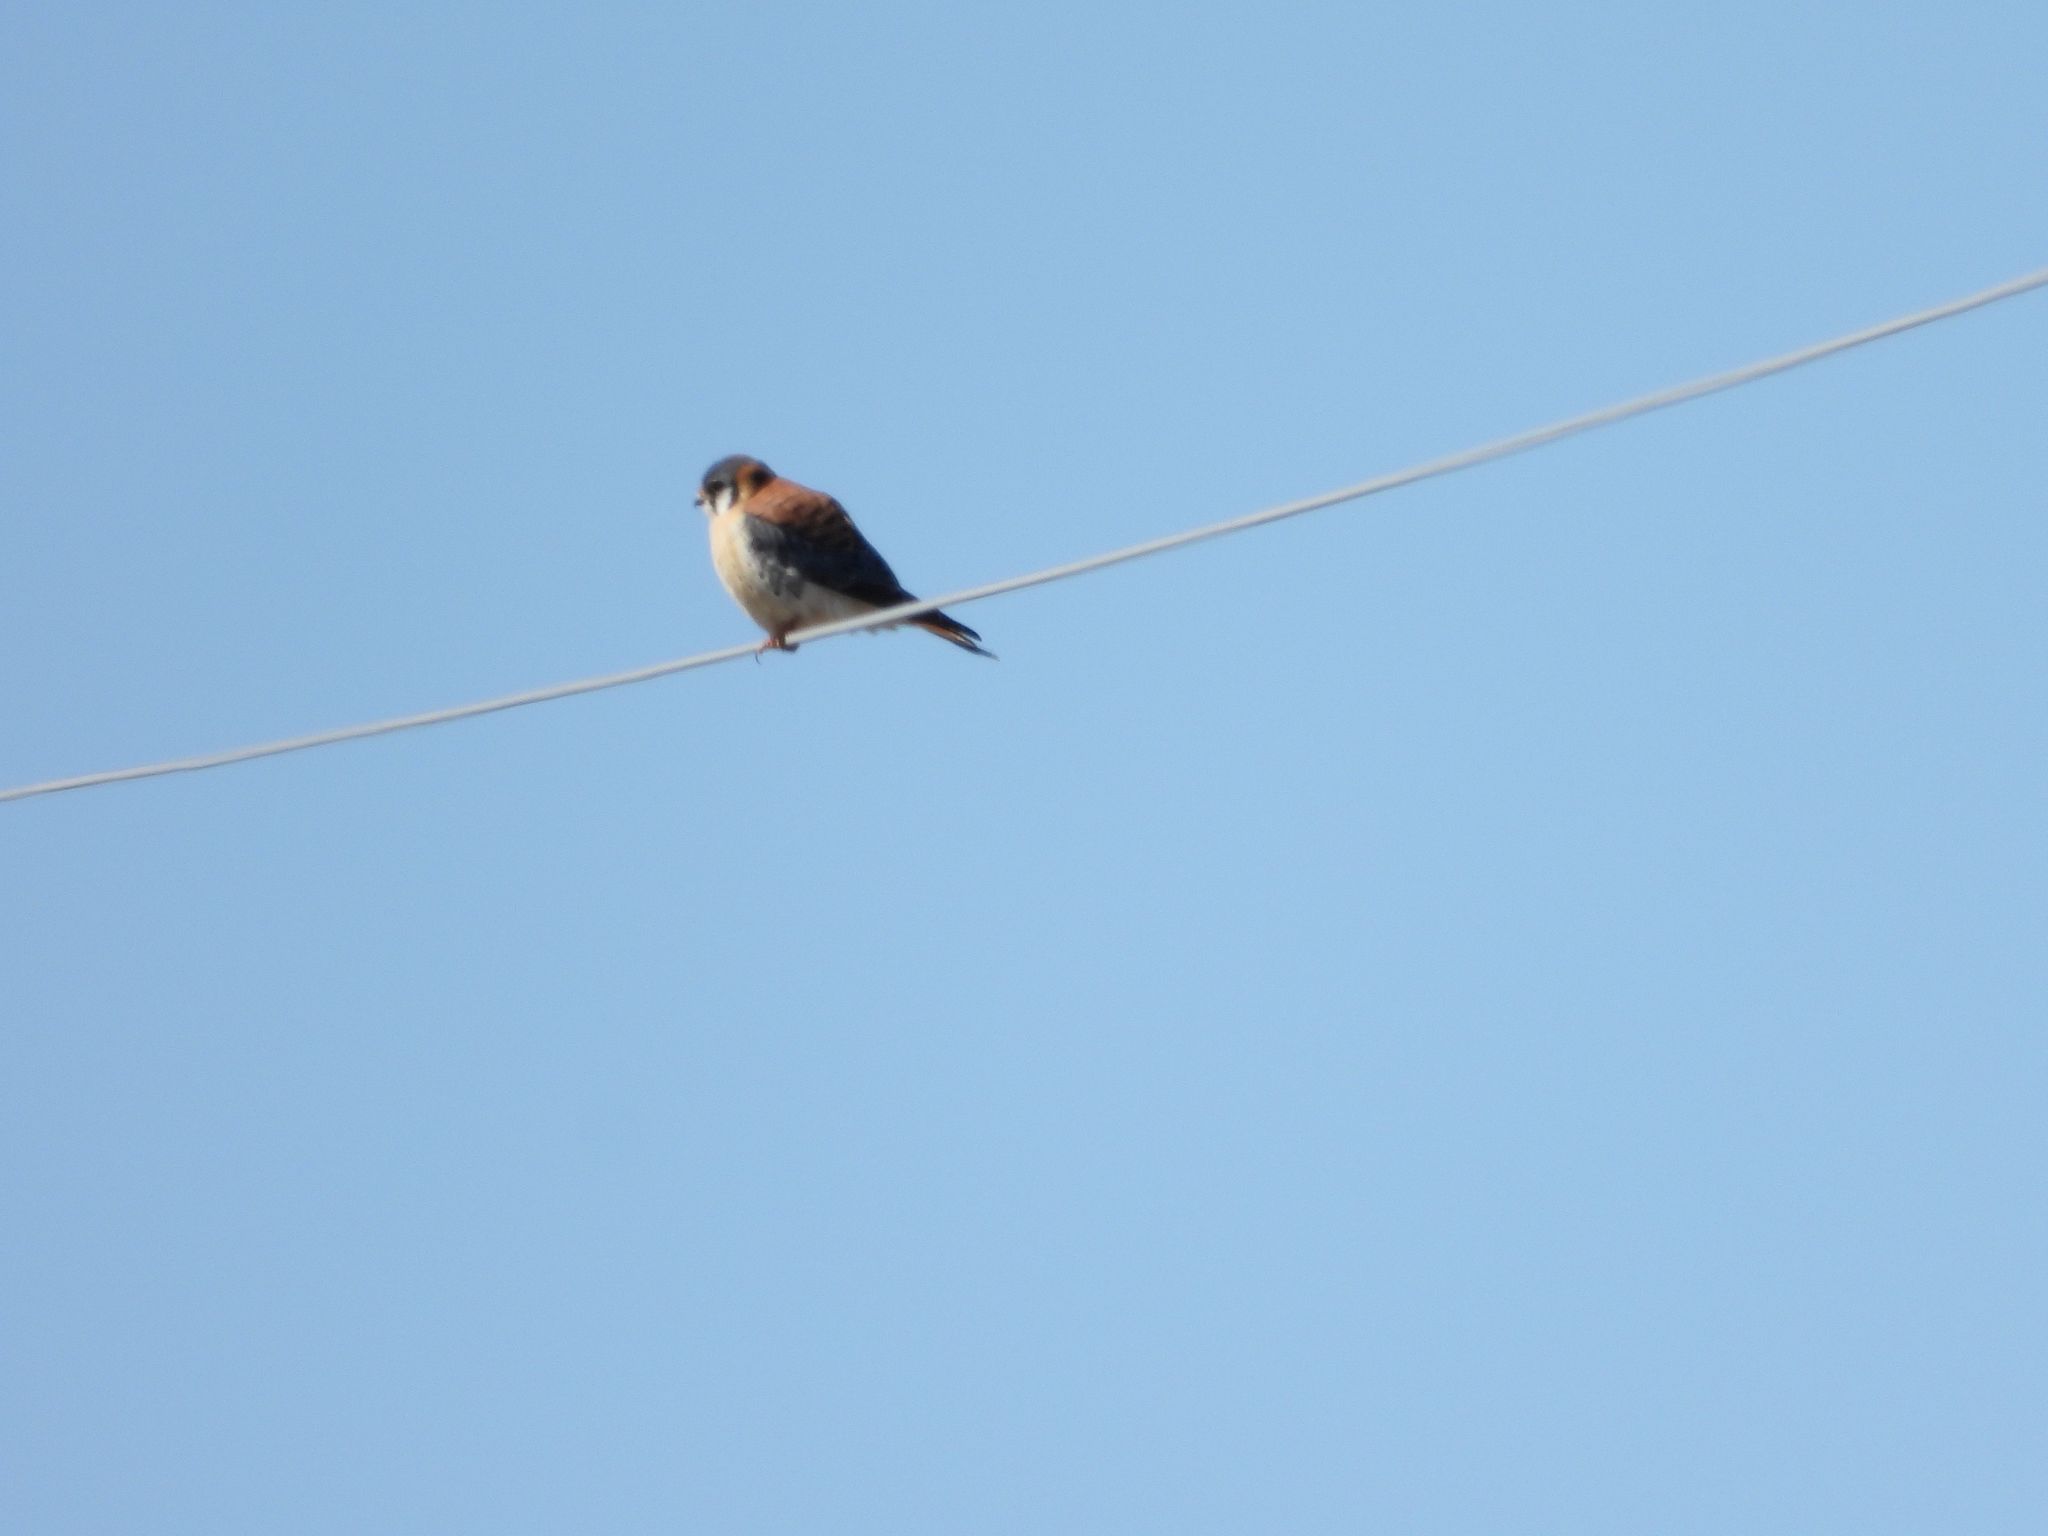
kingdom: Animalia
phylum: Chordata
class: Aves
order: Falconiformes
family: Falconidae
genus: Falco
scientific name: Falco sparverius
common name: American kestrel
